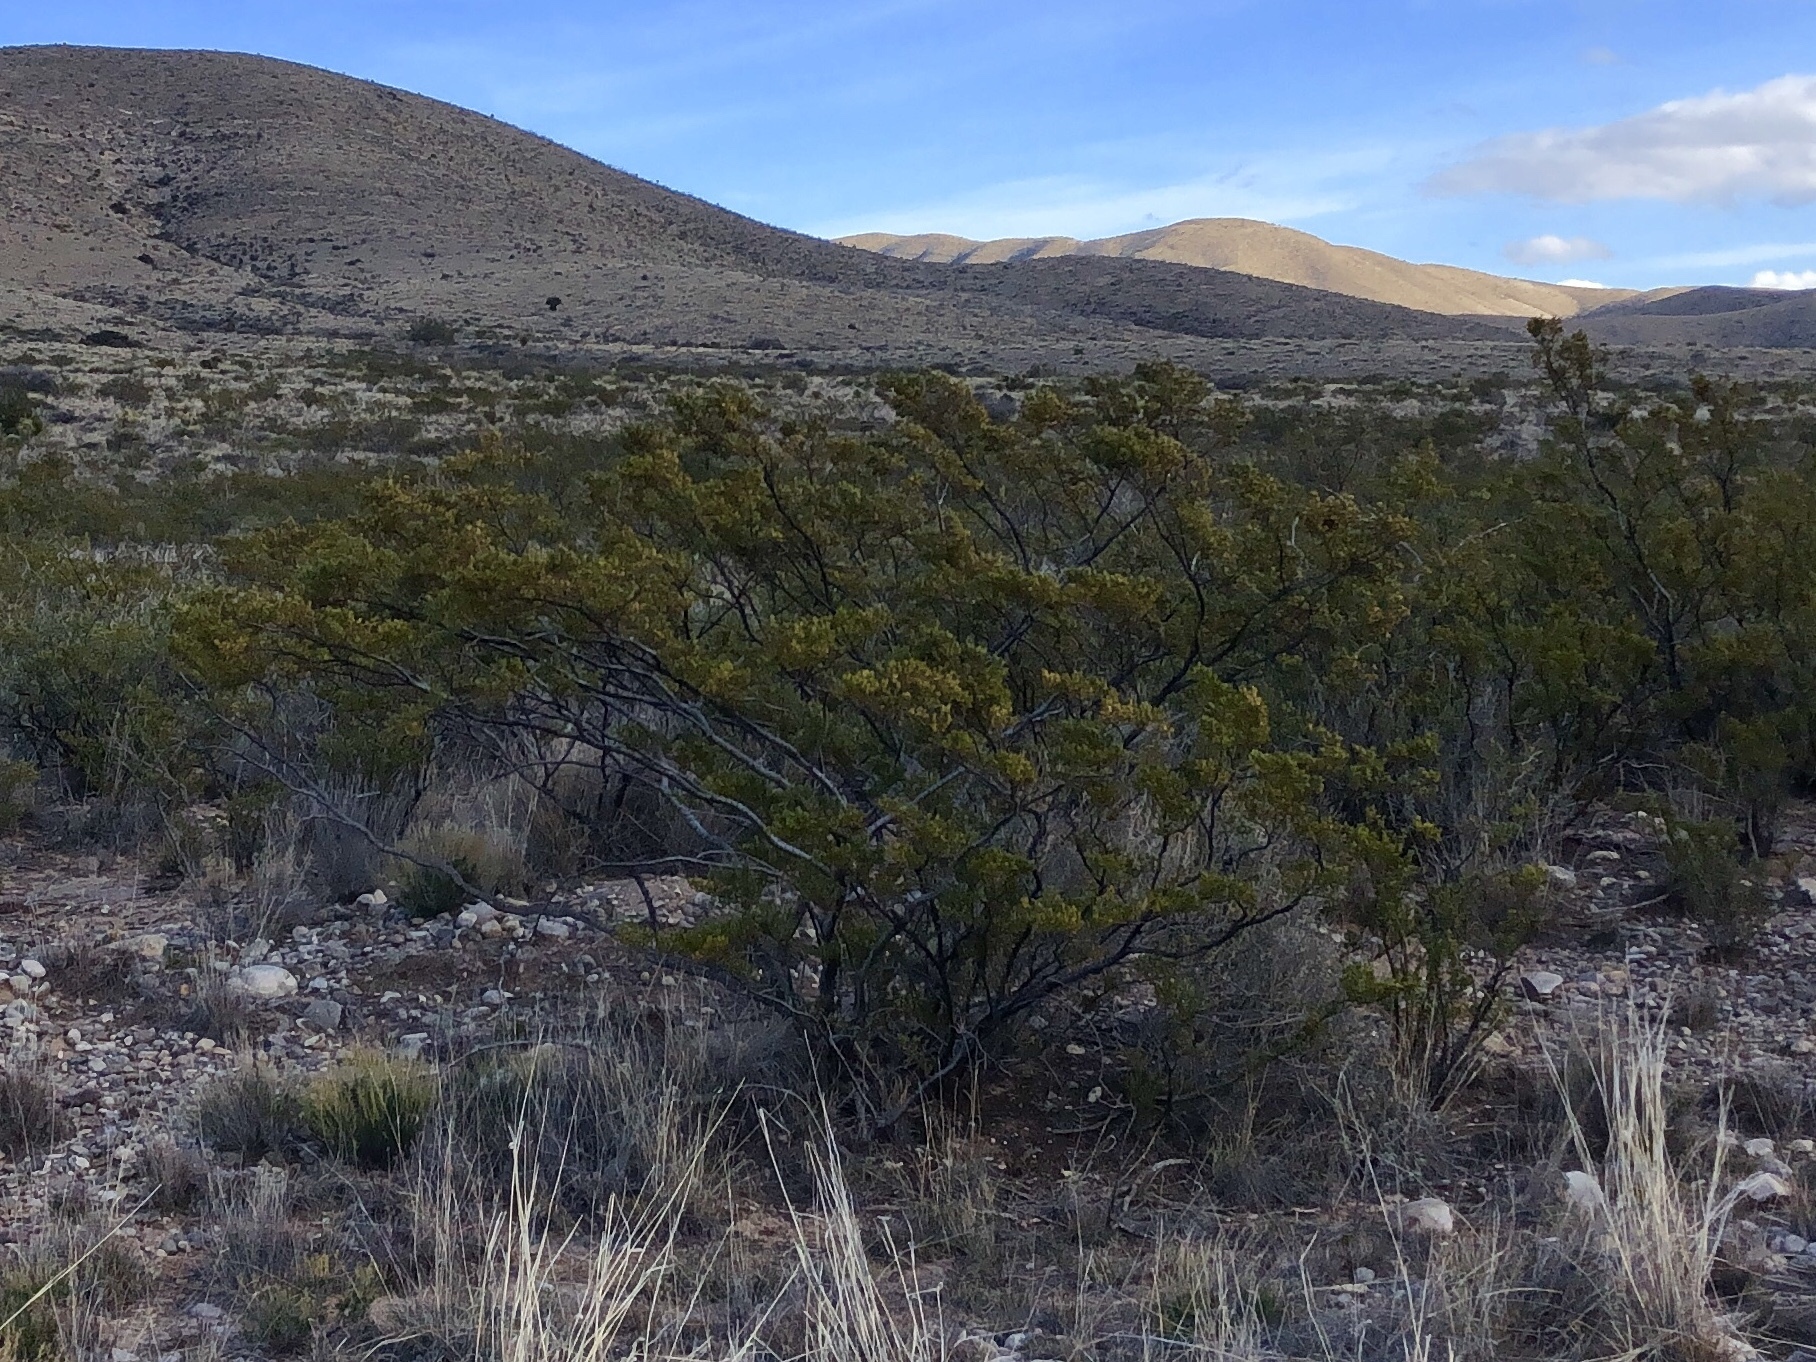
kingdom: Plantae
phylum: Tracheophyta
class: Magnoliopsida
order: Zygophyllales
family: Zygophyllaceae
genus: Larrea
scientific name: Larrea tridentata
